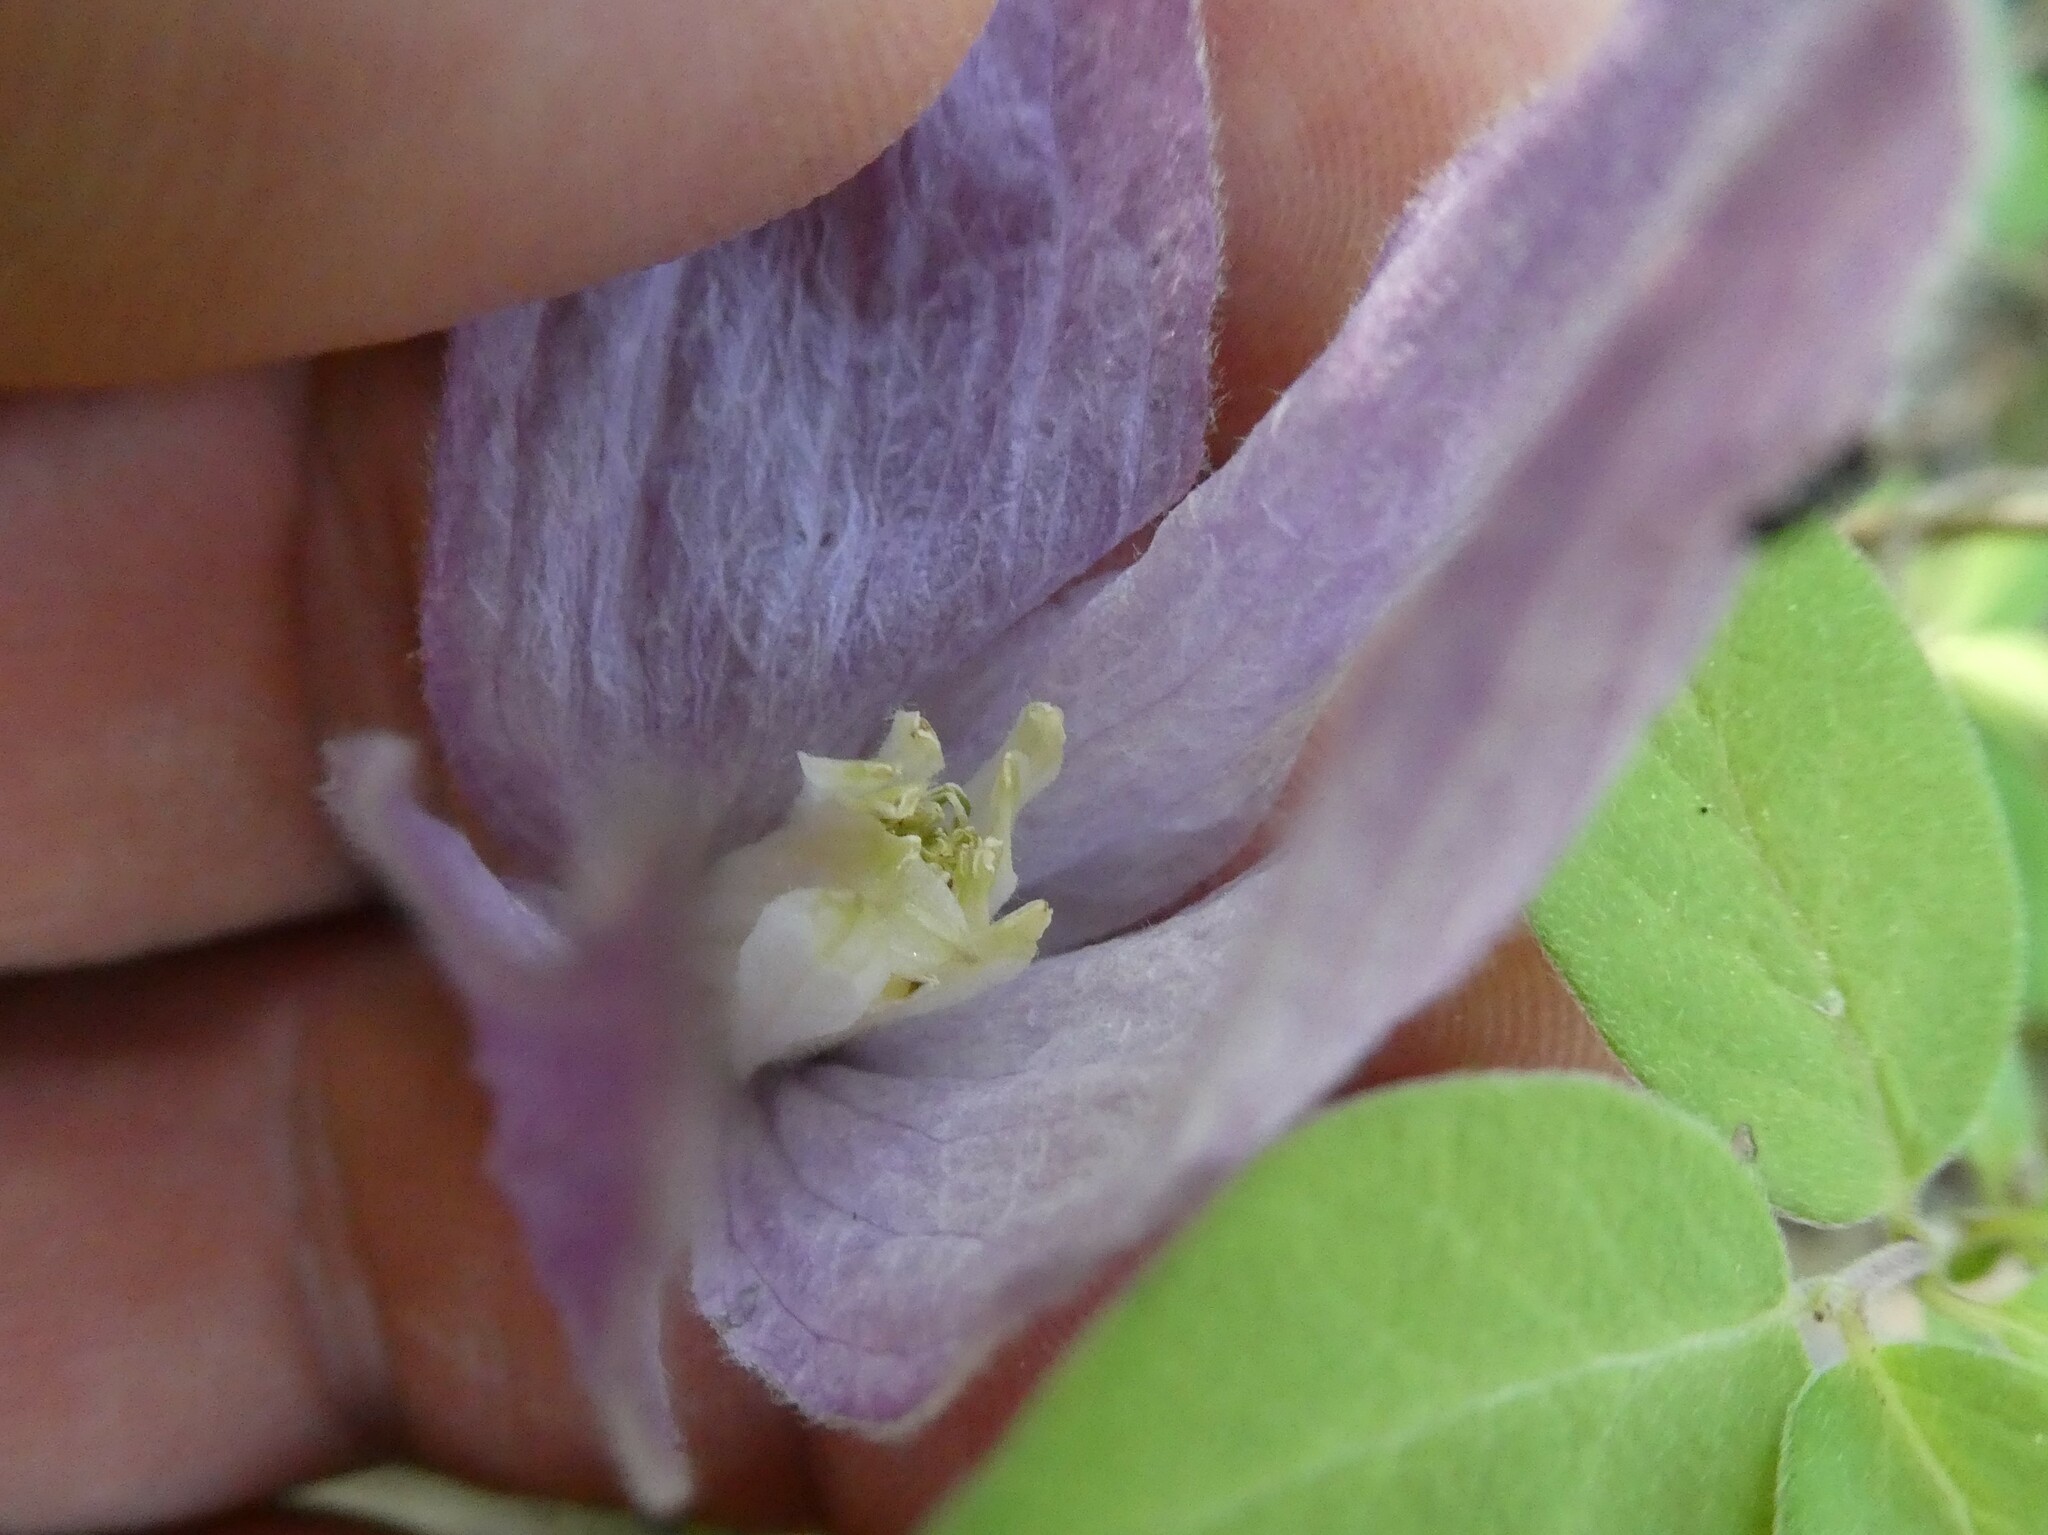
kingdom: Plantae
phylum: Tracheophyta
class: Magnoliopsida
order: Ranunculales
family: Ranunculaceae
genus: Clematis
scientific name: Clematis occidentalis
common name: Purple clematis
